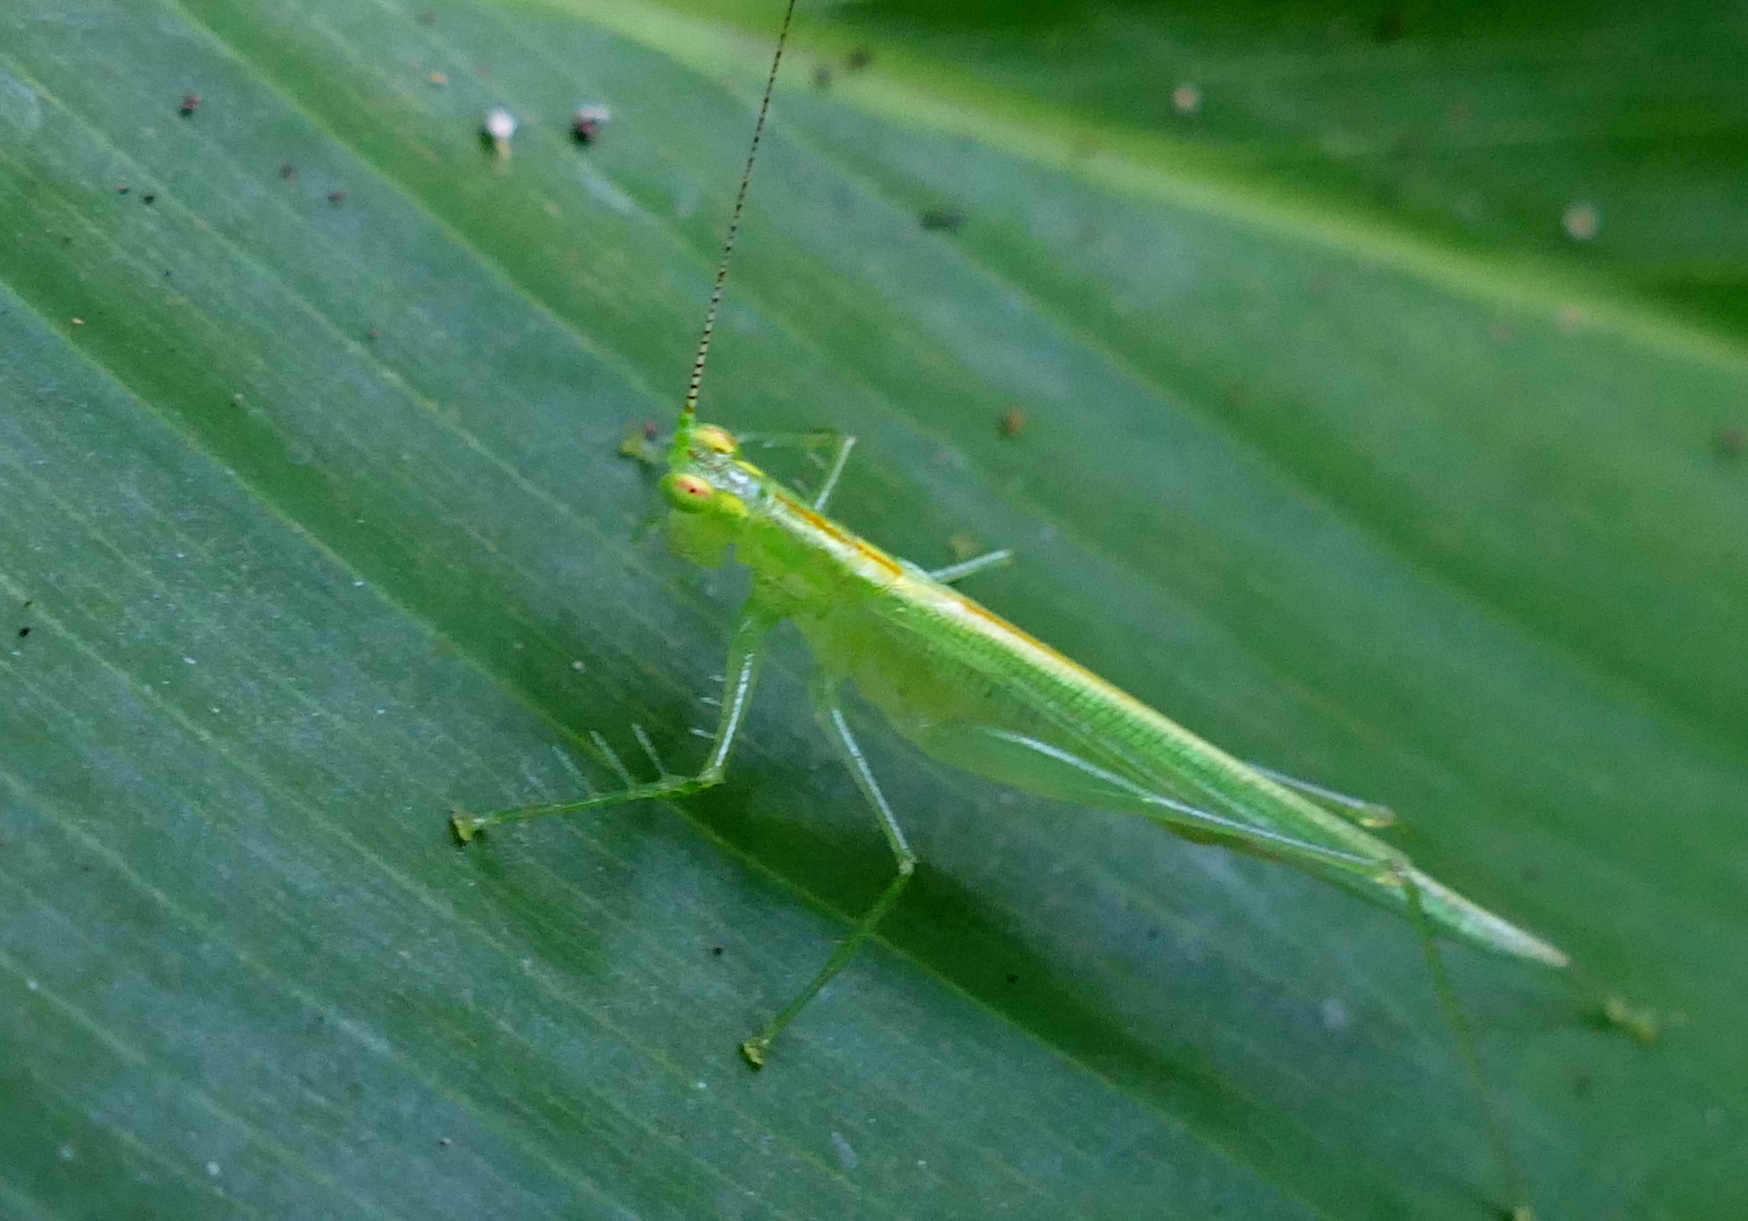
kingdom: Animalia
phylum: Arthropoda
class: Insecta
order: Orthoptera
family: Tettigoniidae
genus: Phlugis
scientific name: Phlugis ocraceovittata
